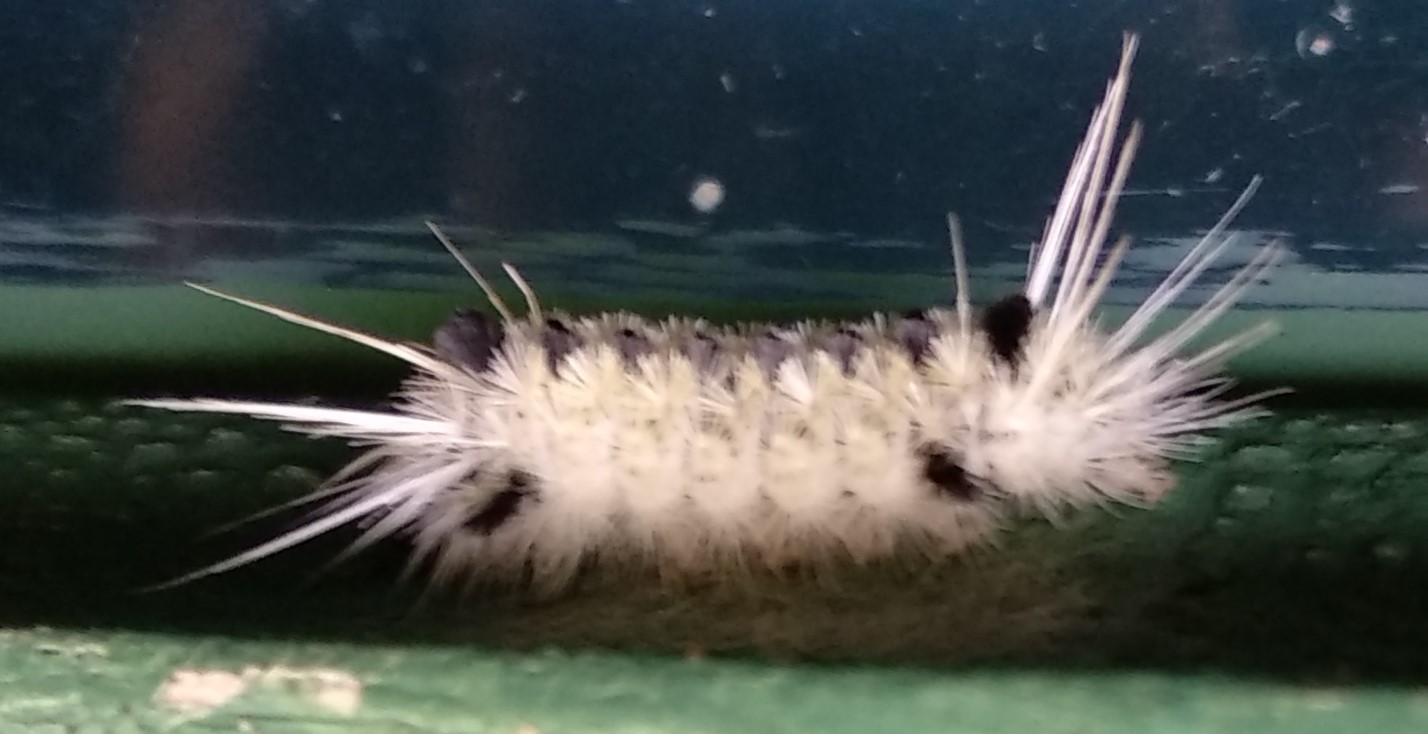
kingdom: Animalia
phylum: Arthropoda
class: Insecta
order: Lepidoptera
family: Erebidae
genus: Lophocampa
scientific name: Lophocampa maculata
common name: Spotted tussock moth
